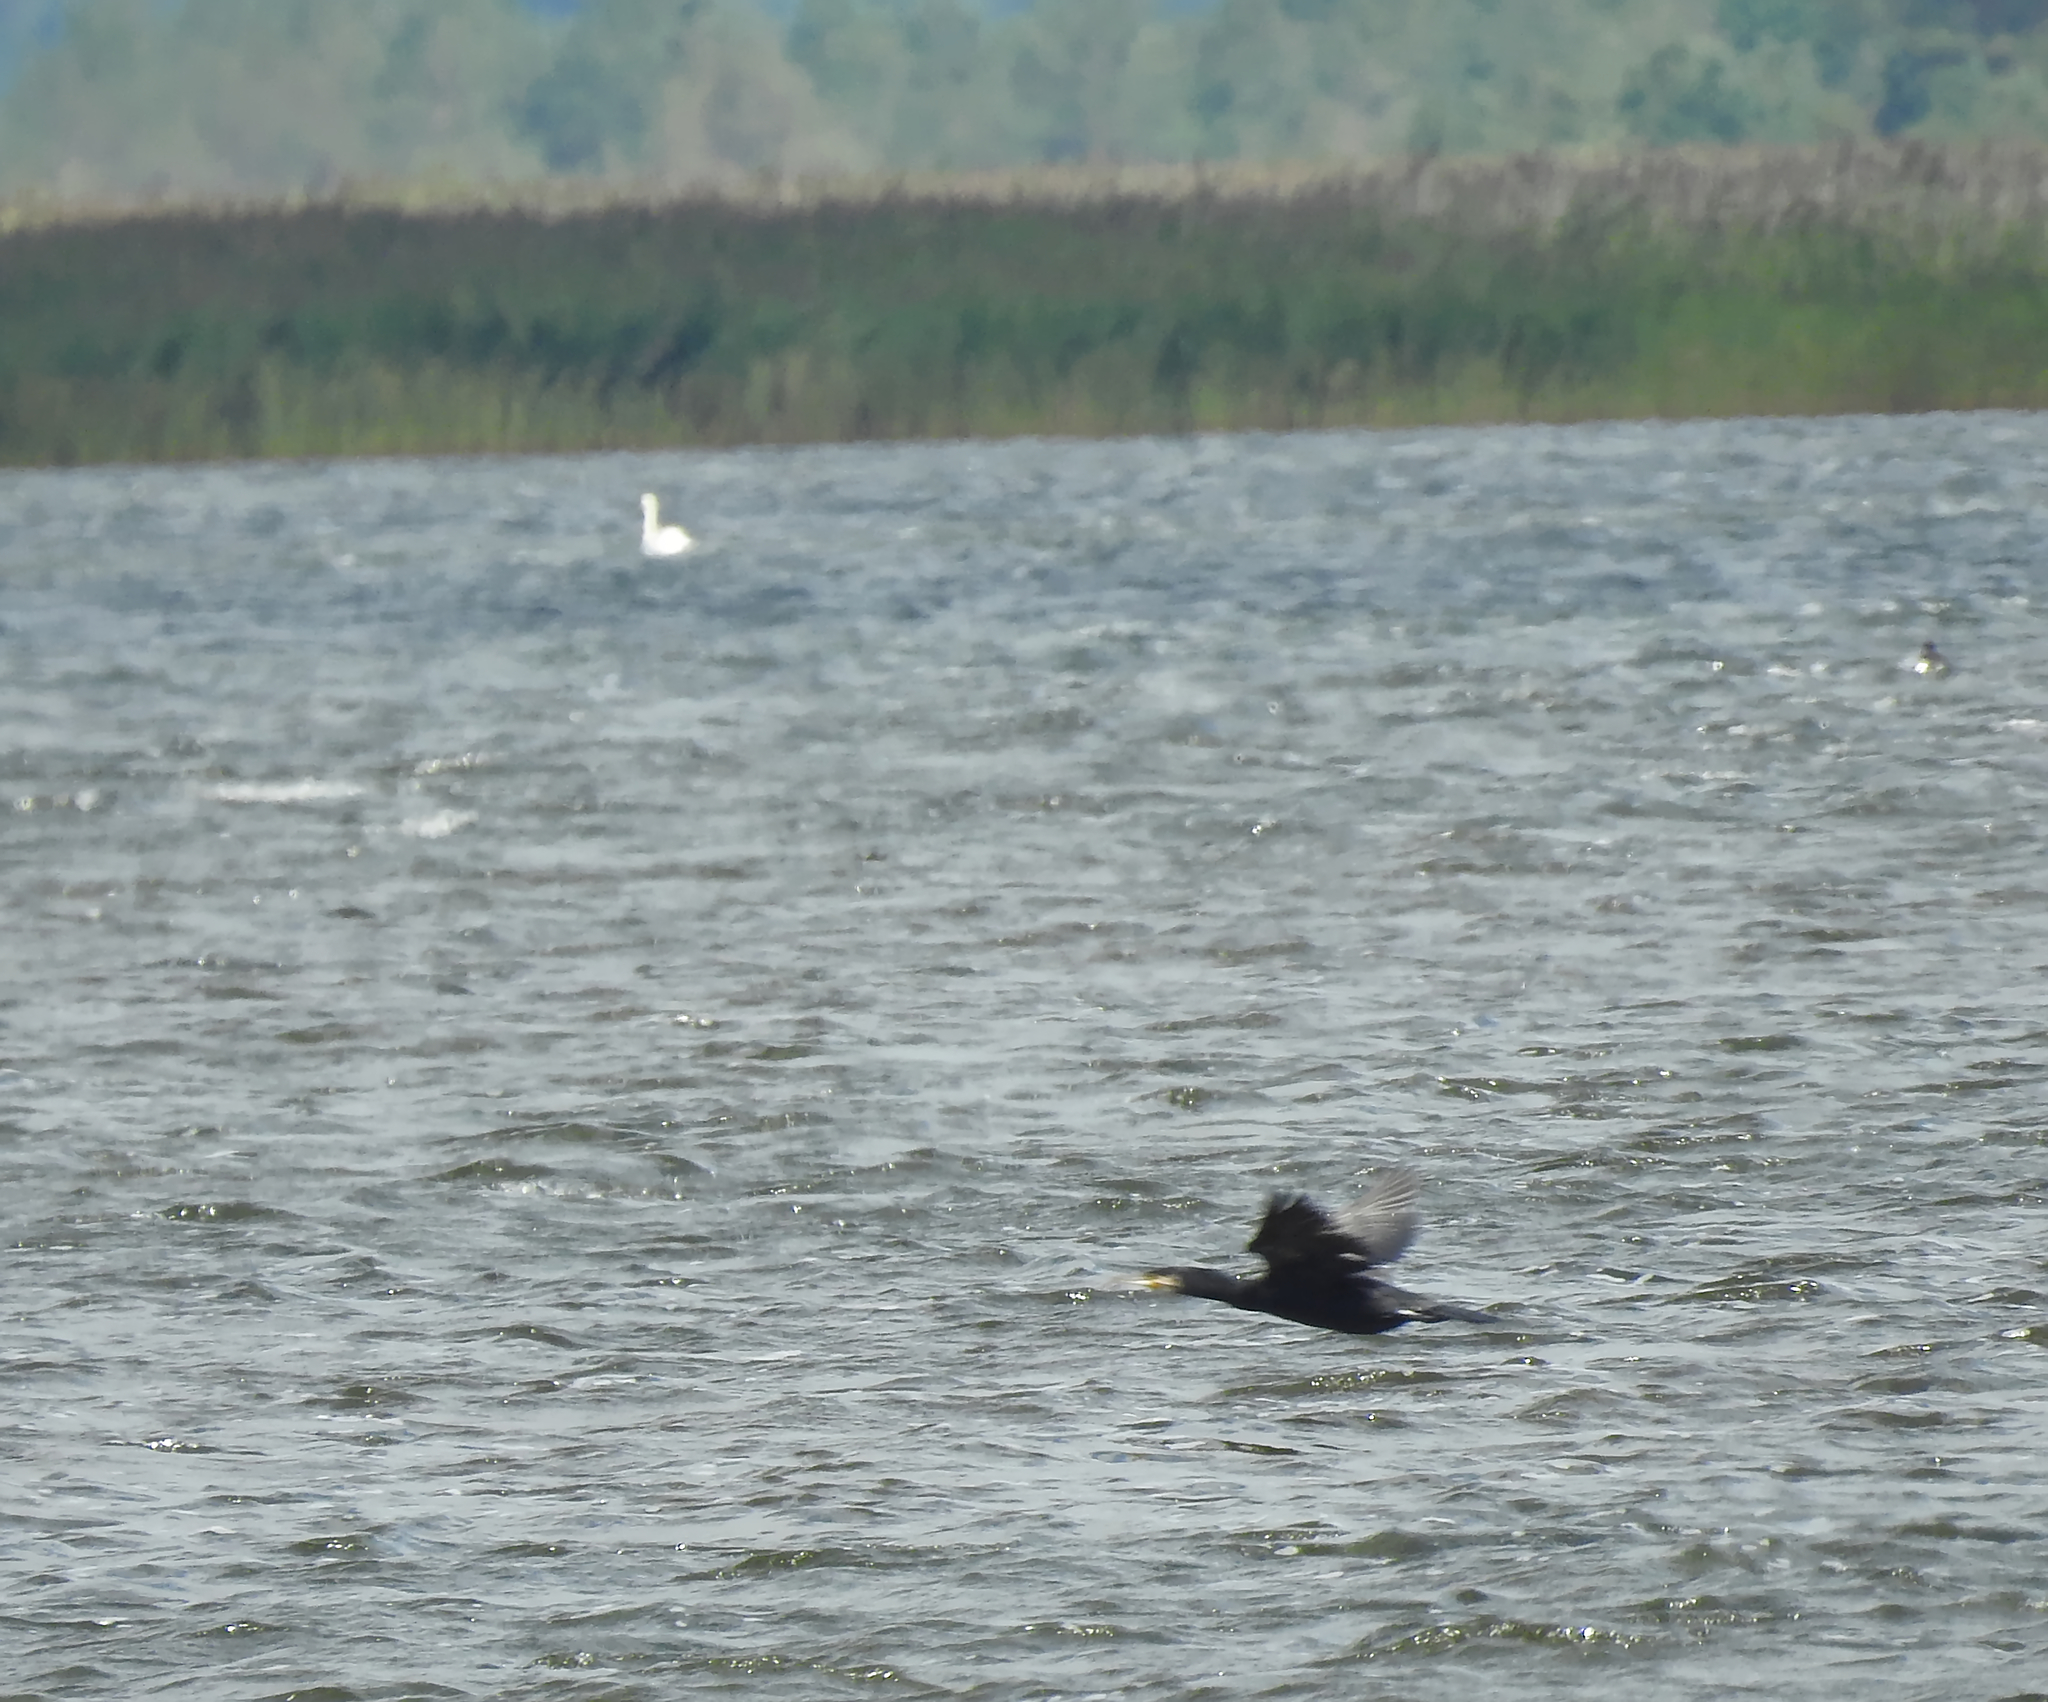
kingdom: Animalia
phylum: Chordata
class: Aves
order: Suliformes
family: Phalacrocoracidae
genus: Phalacrocorax
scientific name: Phalacrocorax carbo
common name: Great cormorant
